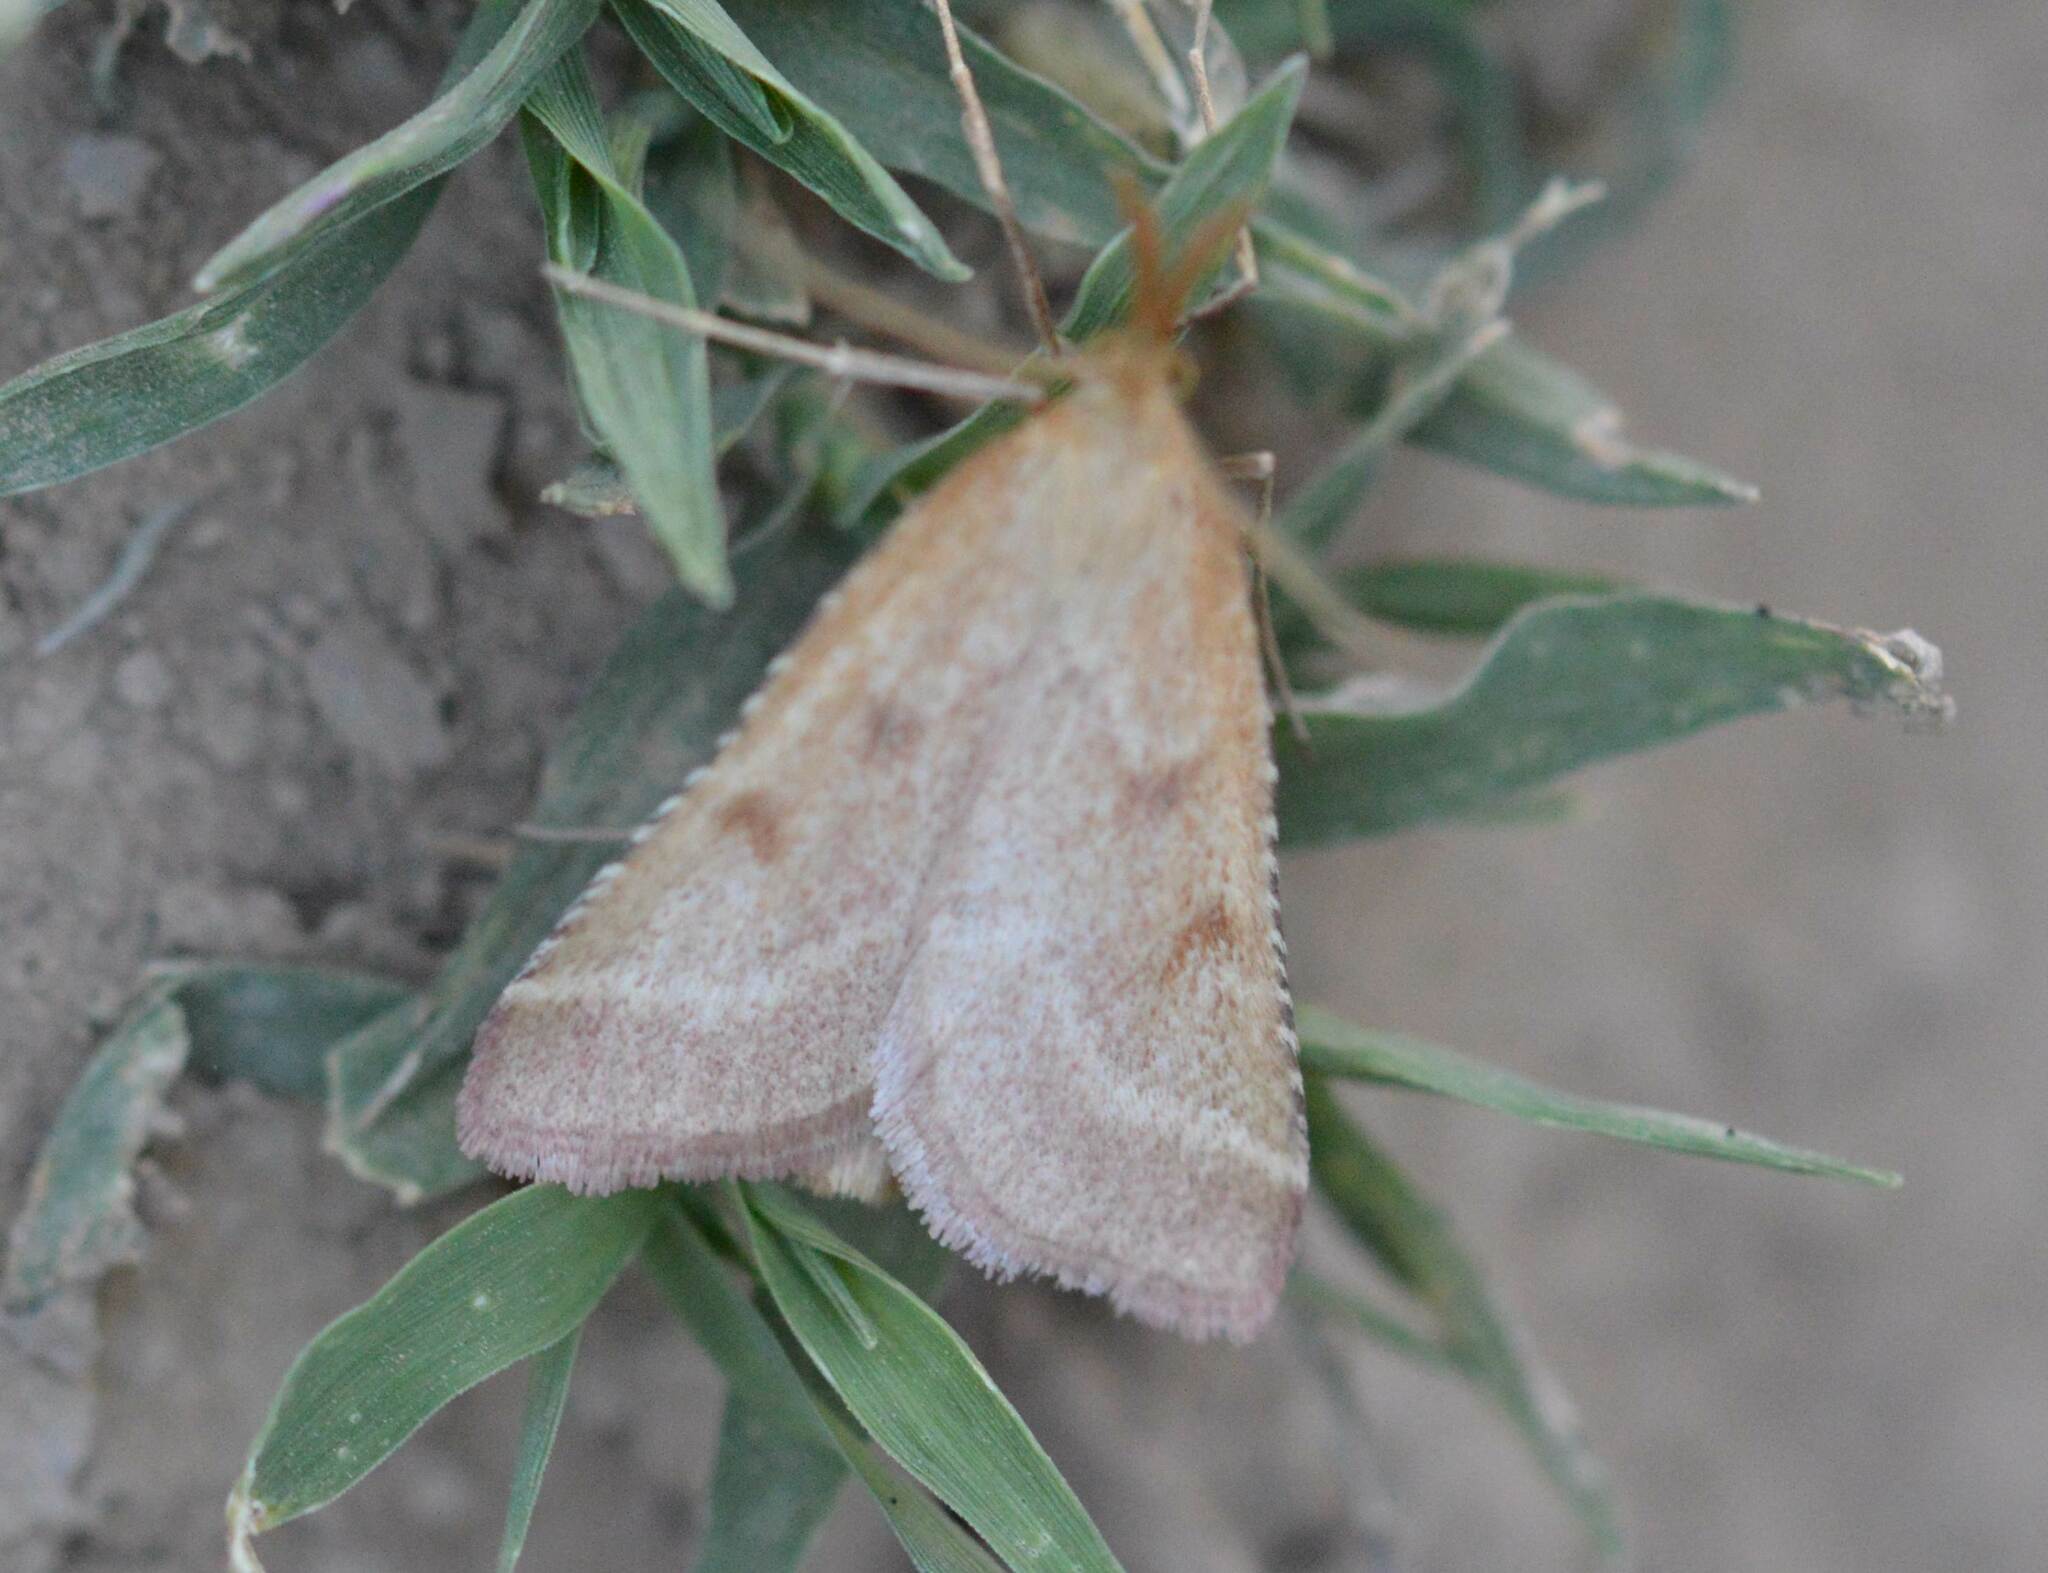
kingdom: Animalia
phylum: Arthropoda
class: Insecta
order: Lepidoptera
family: Pyralidae
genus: Synaphe
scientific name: Synaphe punctalis
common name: Long-legged tabby
